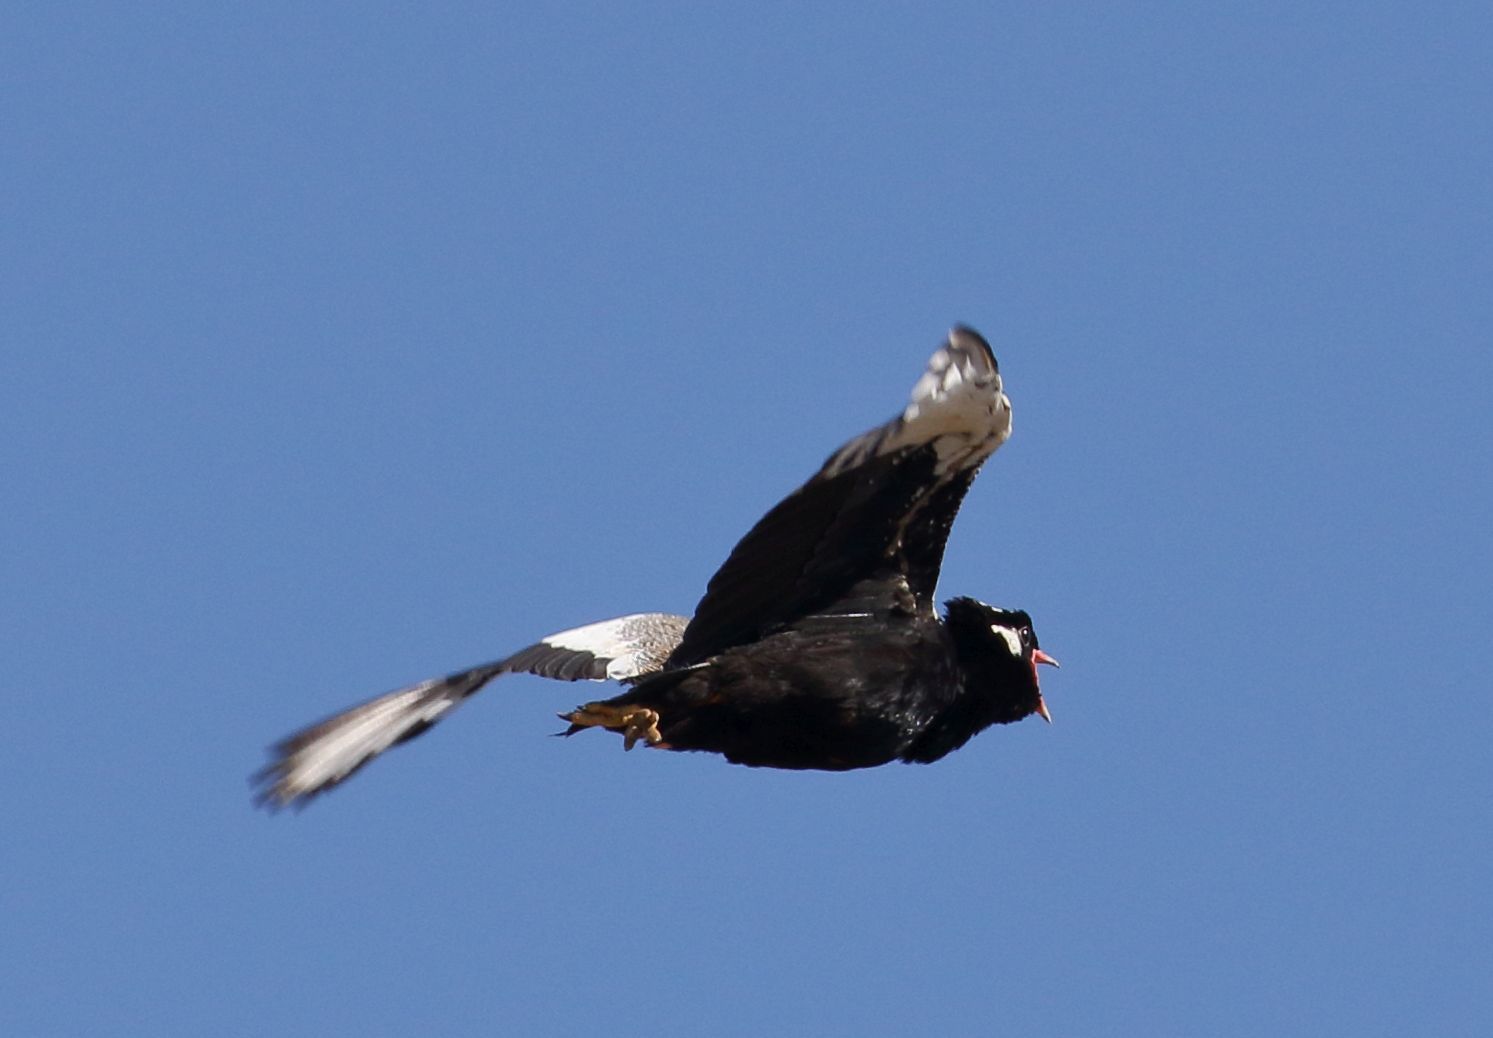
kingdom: Animalia
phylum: Chordata
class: Aves
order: Otidiformes
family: Otididae
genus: Afrotis
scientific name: Afrotis afraoides
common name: Northern black korhaan
